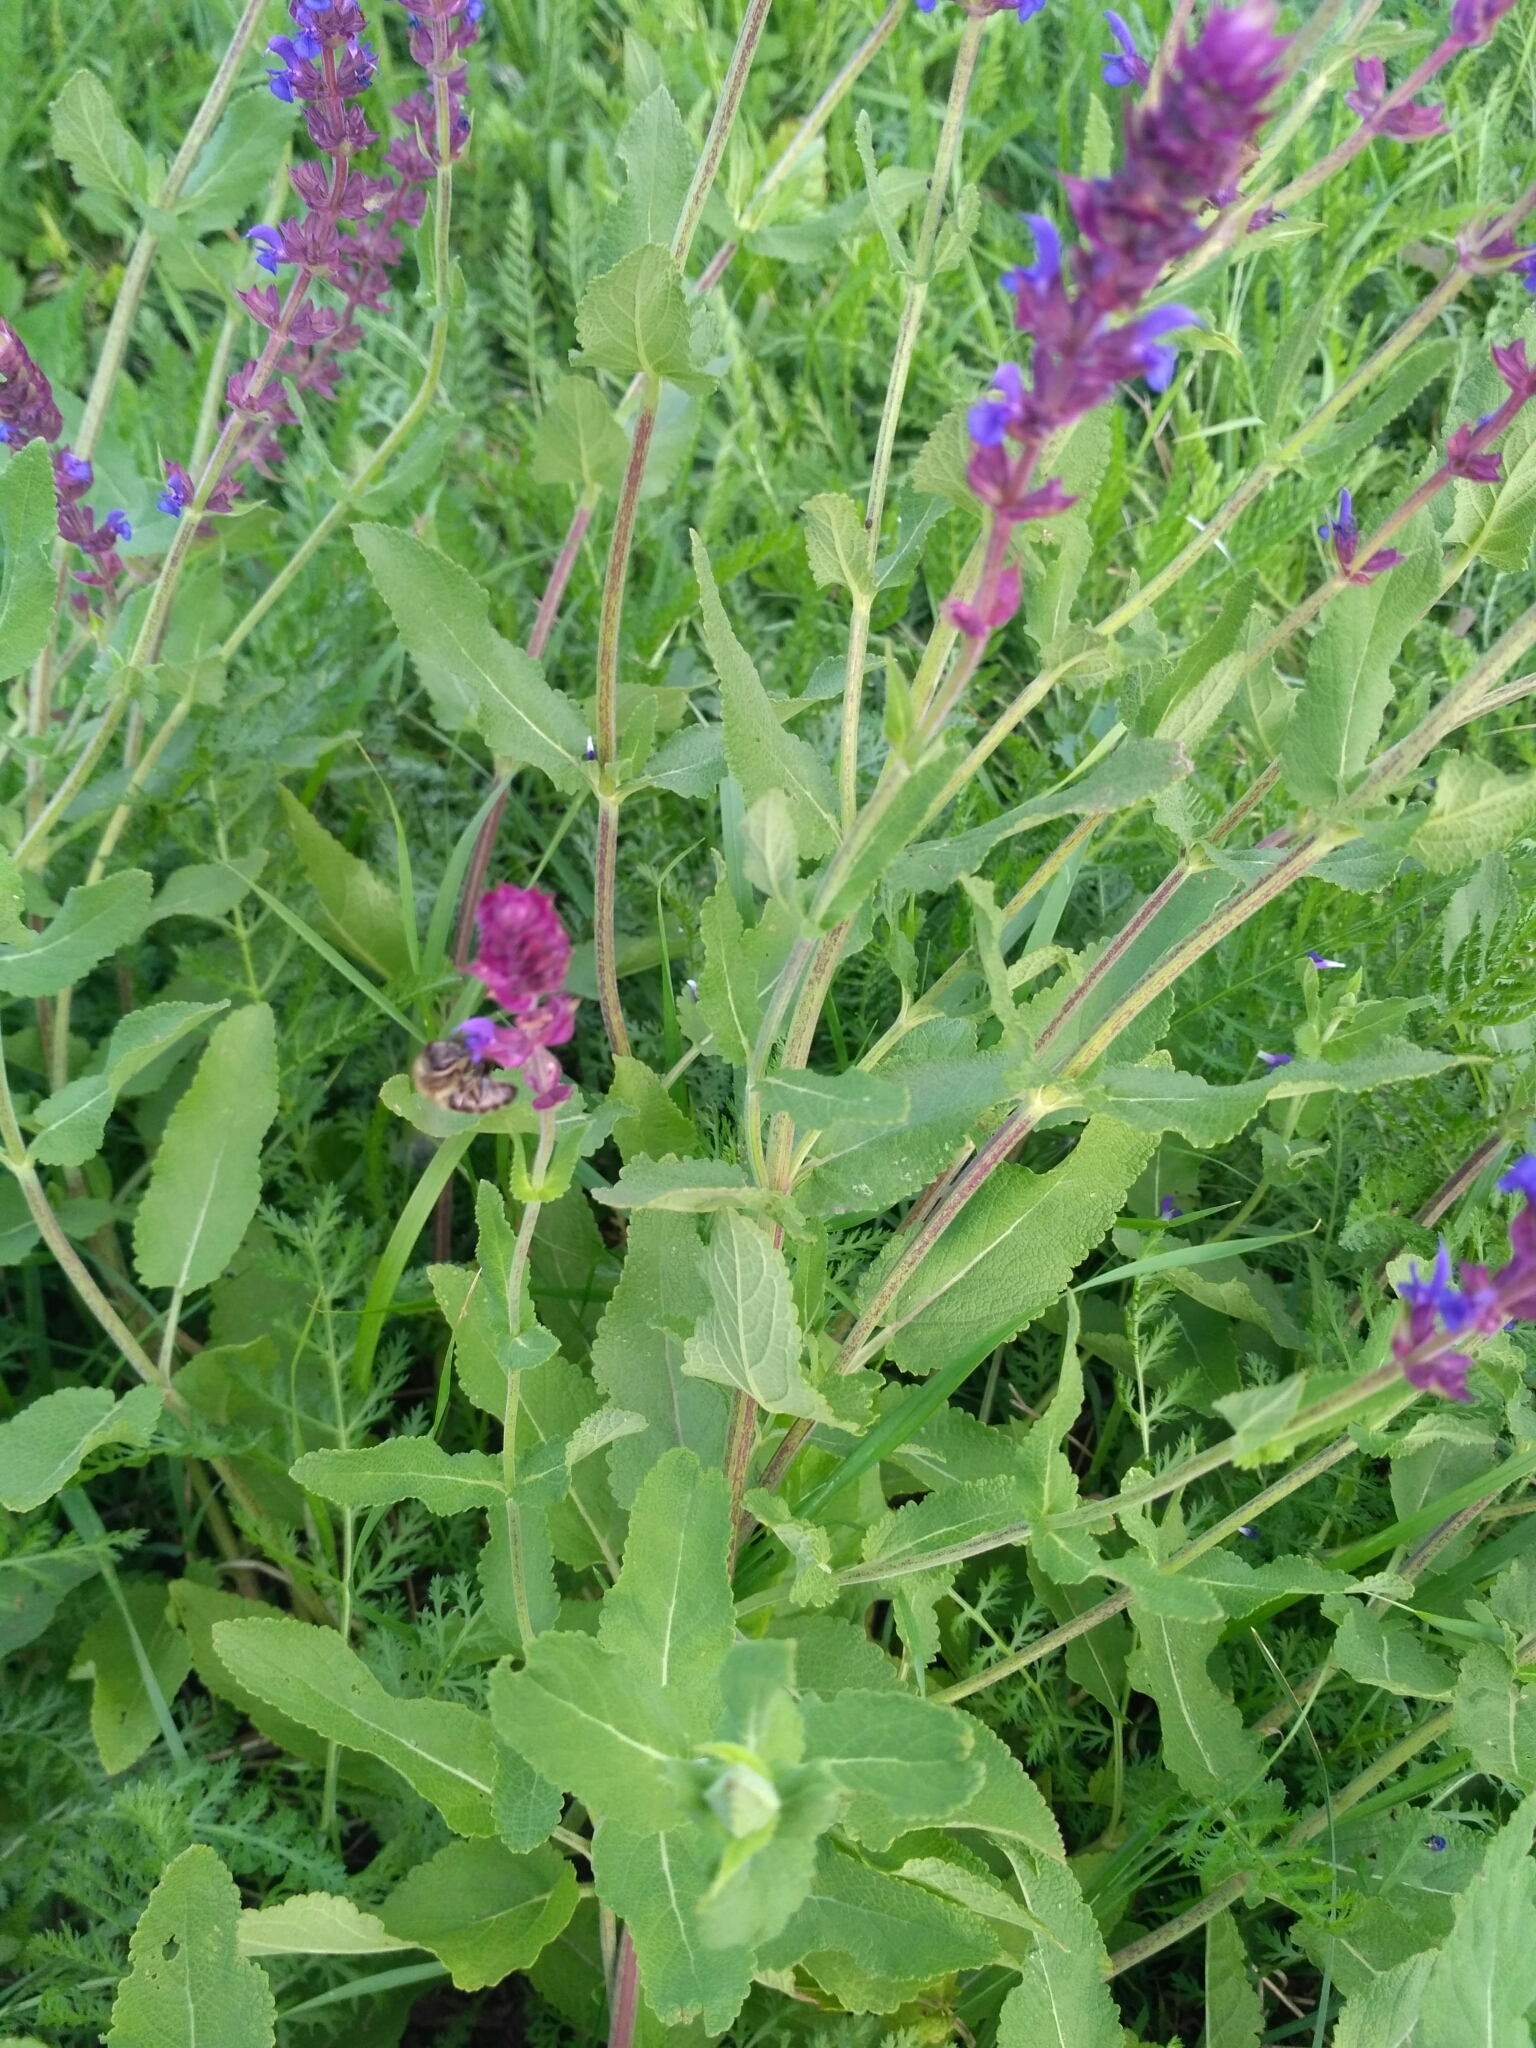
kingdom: Plantae
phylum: Tracheophyta
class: Magnoliopsida
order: Lamiales
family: Lamiaceae
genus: Salvia
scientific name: Salvia nemorosa
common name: Balkan clary
